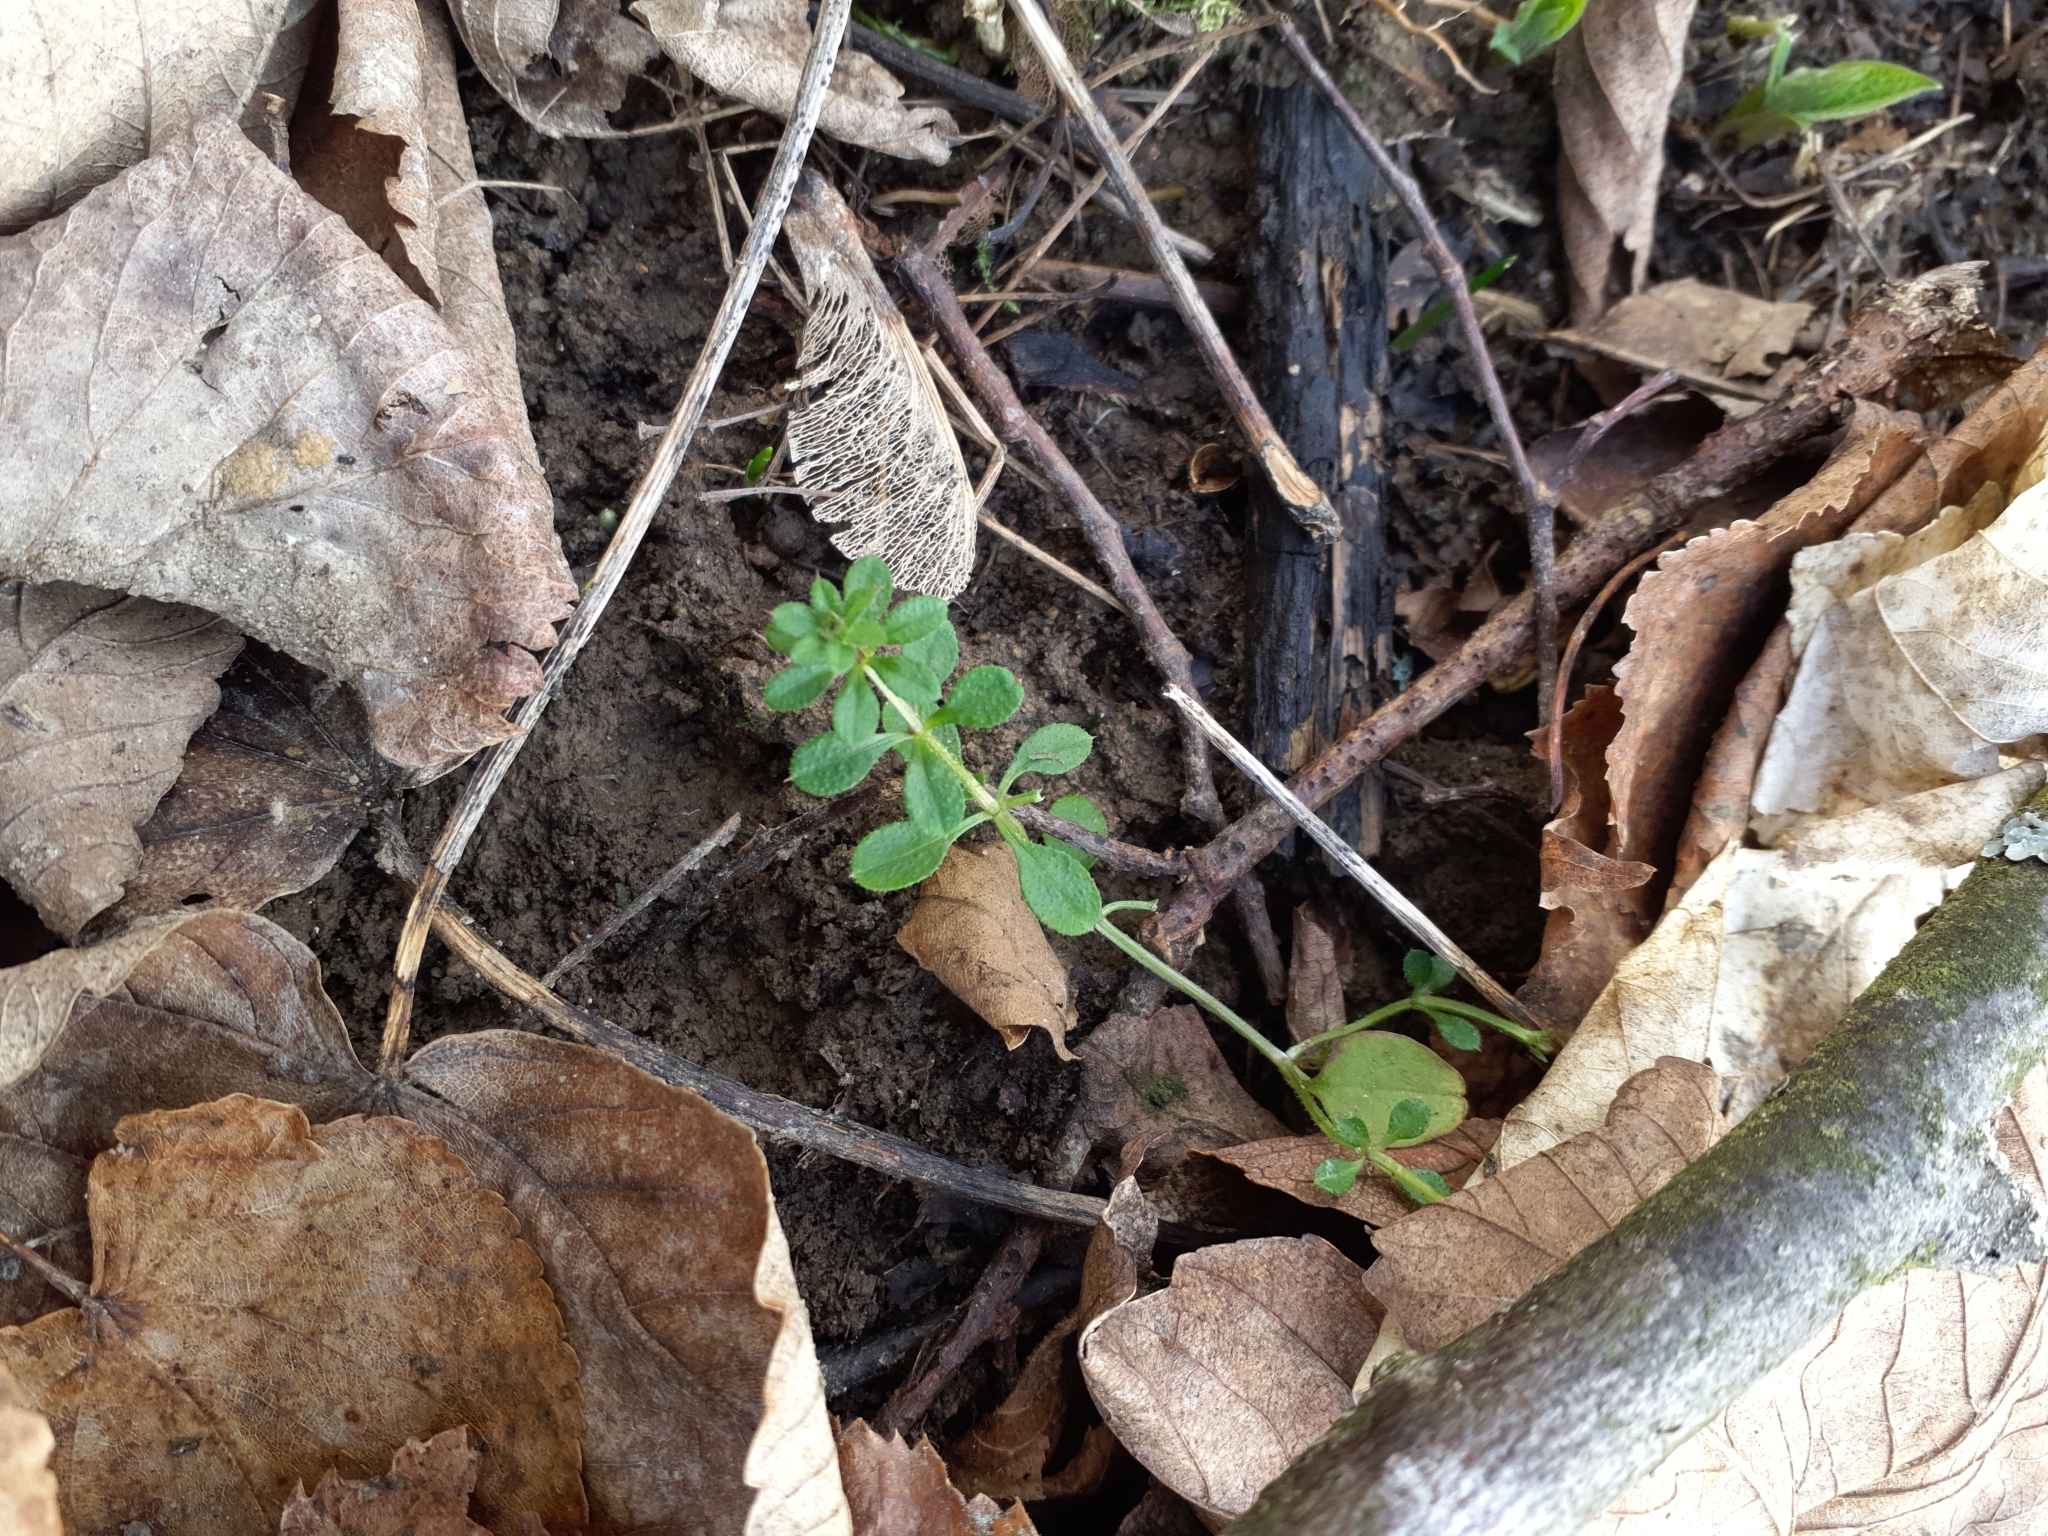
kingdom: Plantae
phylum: Tracheophyta
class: Magnoliopsida
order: Gentianales
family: Rubiaceae
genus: Galium
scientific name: Galium aparine
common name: Cleavers
